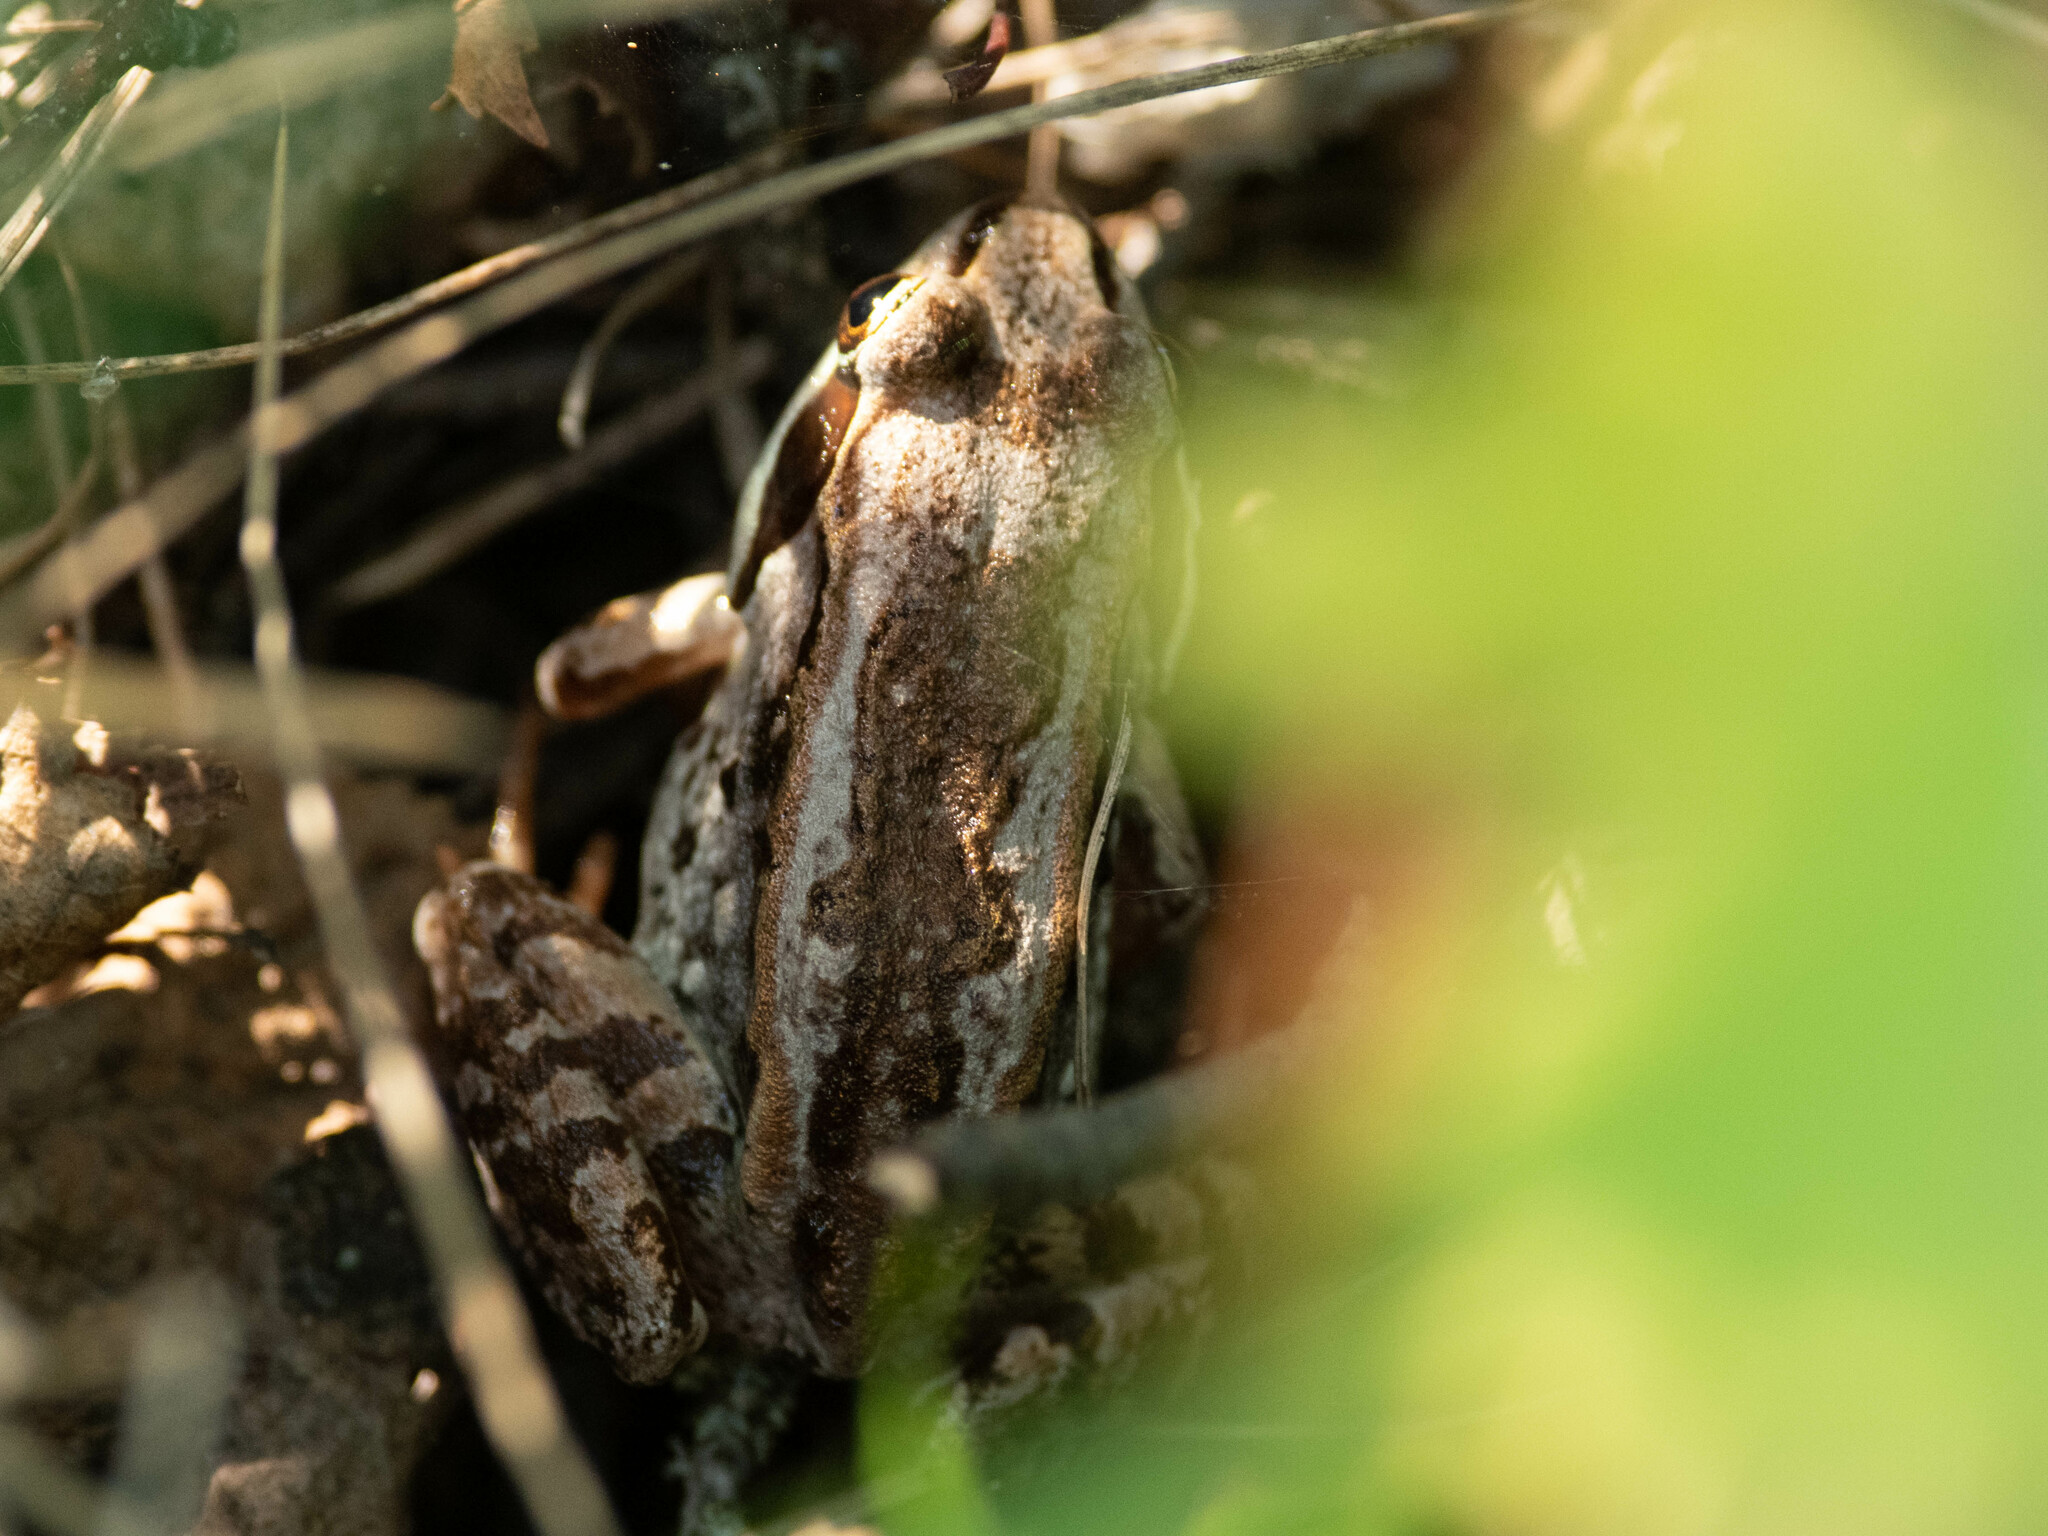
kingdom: Animalia
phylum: Chordata
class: Amphibia
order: Anura
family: Ranidae
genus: Lithobates
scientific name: Lithobates sylvaticus
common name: Wood frog
